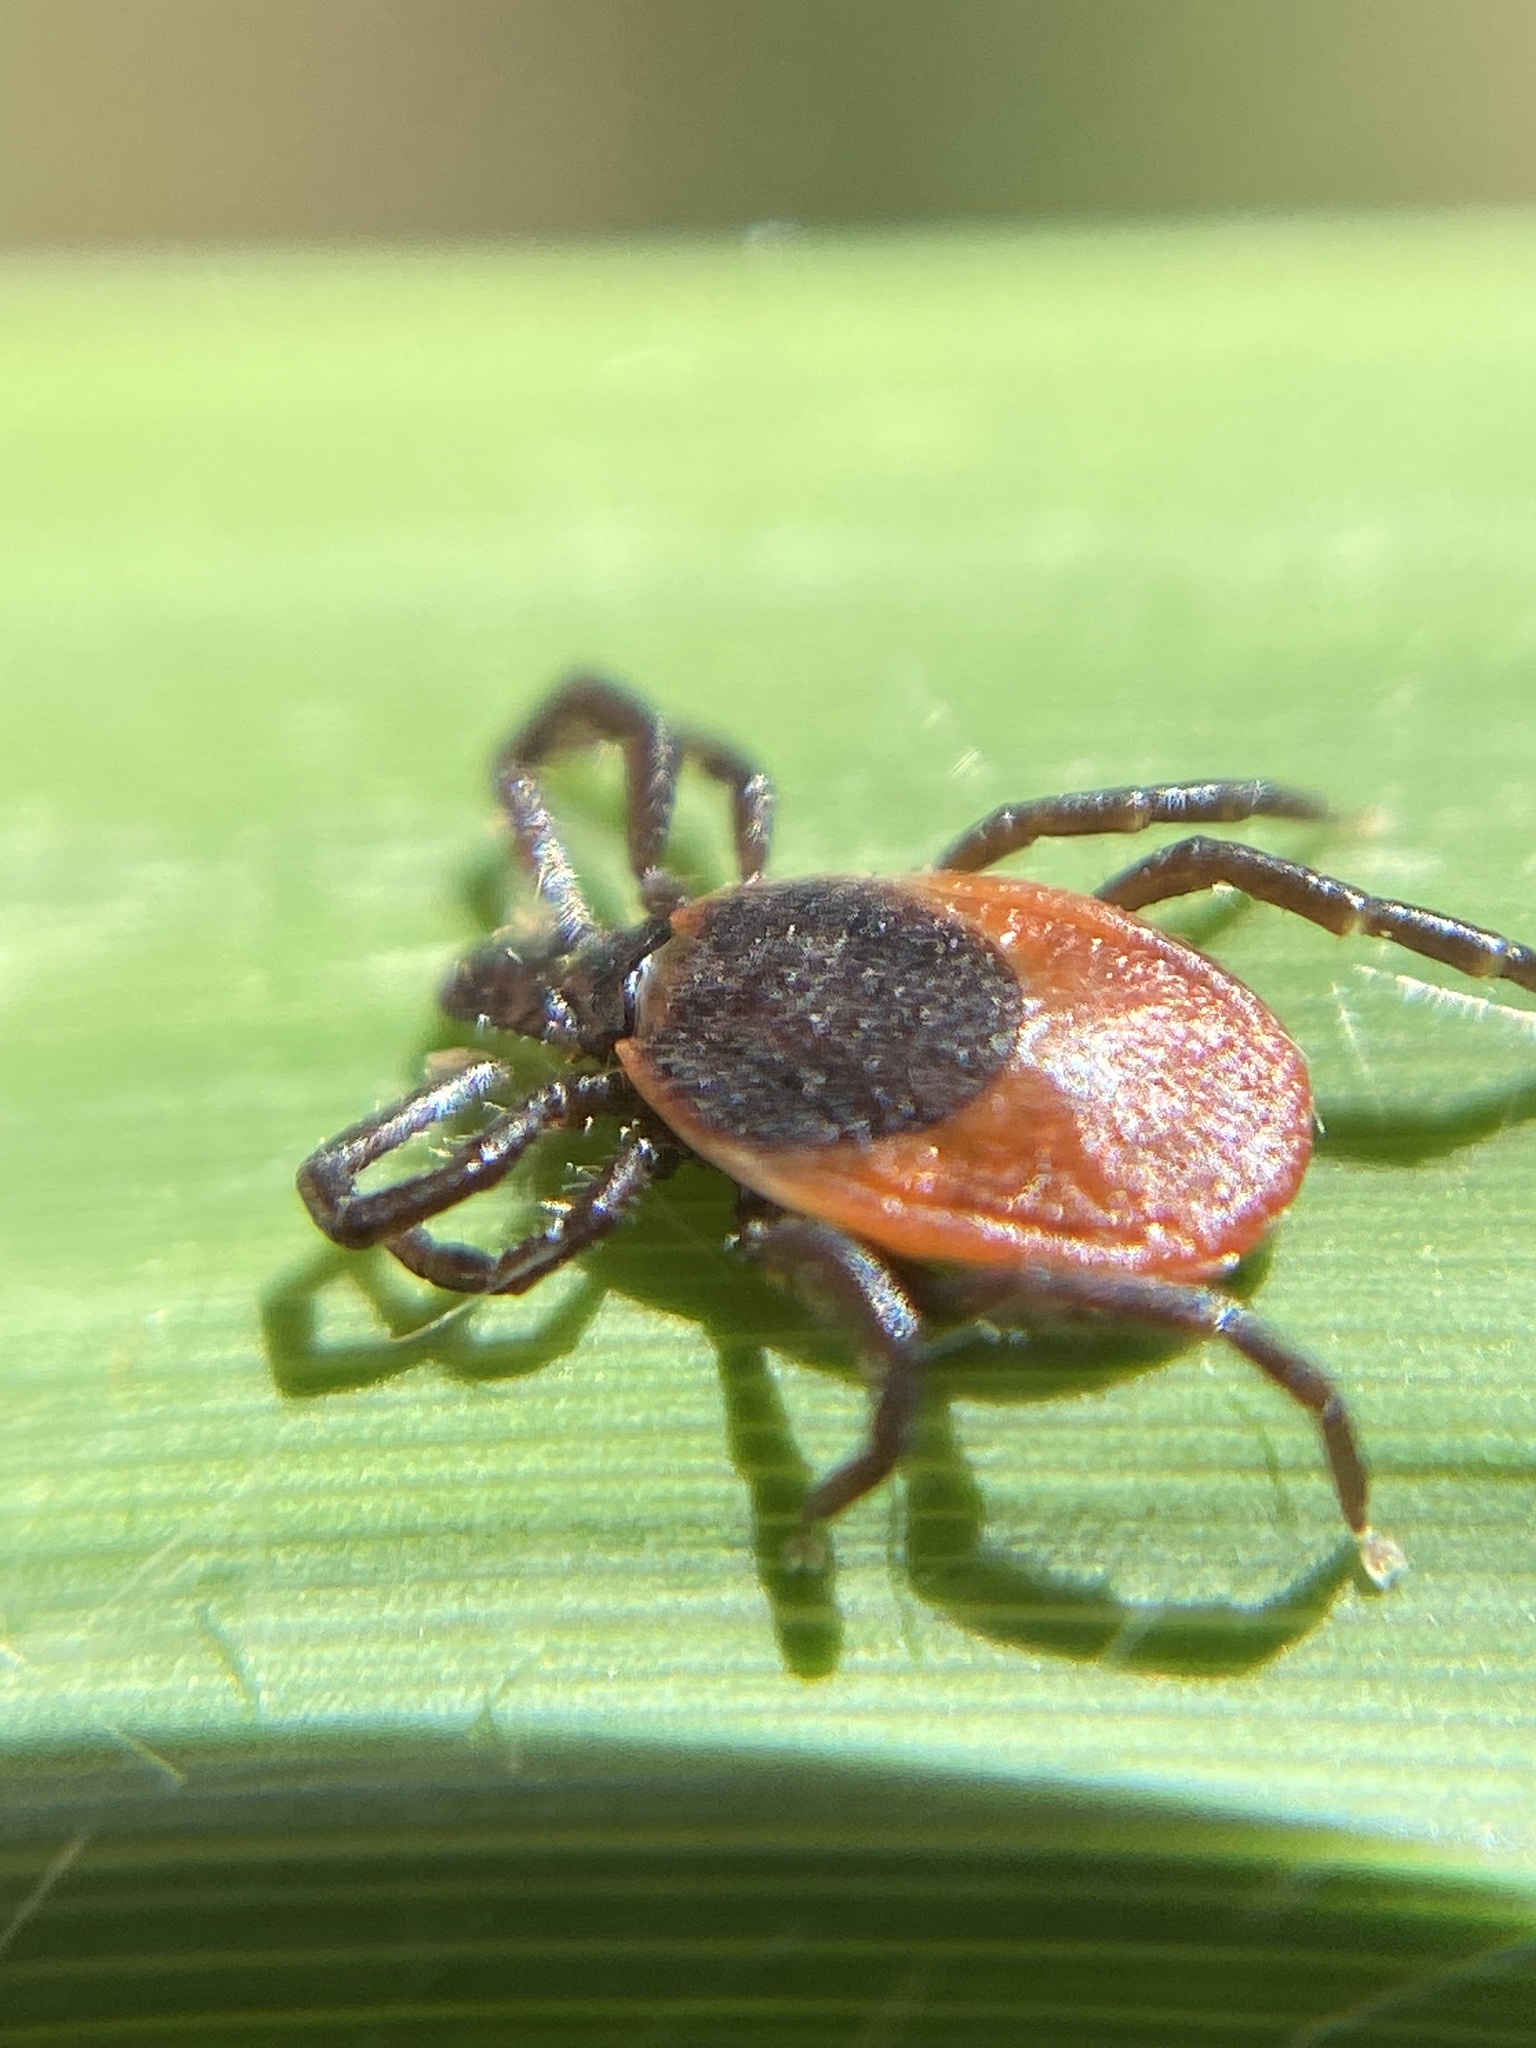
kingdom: Animalia
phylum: Arthropoda
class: Arachnida
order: Ixodida
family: Ixodidae
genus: Ixodes
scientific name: Ixodes ricinus
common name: Castor bean tick
